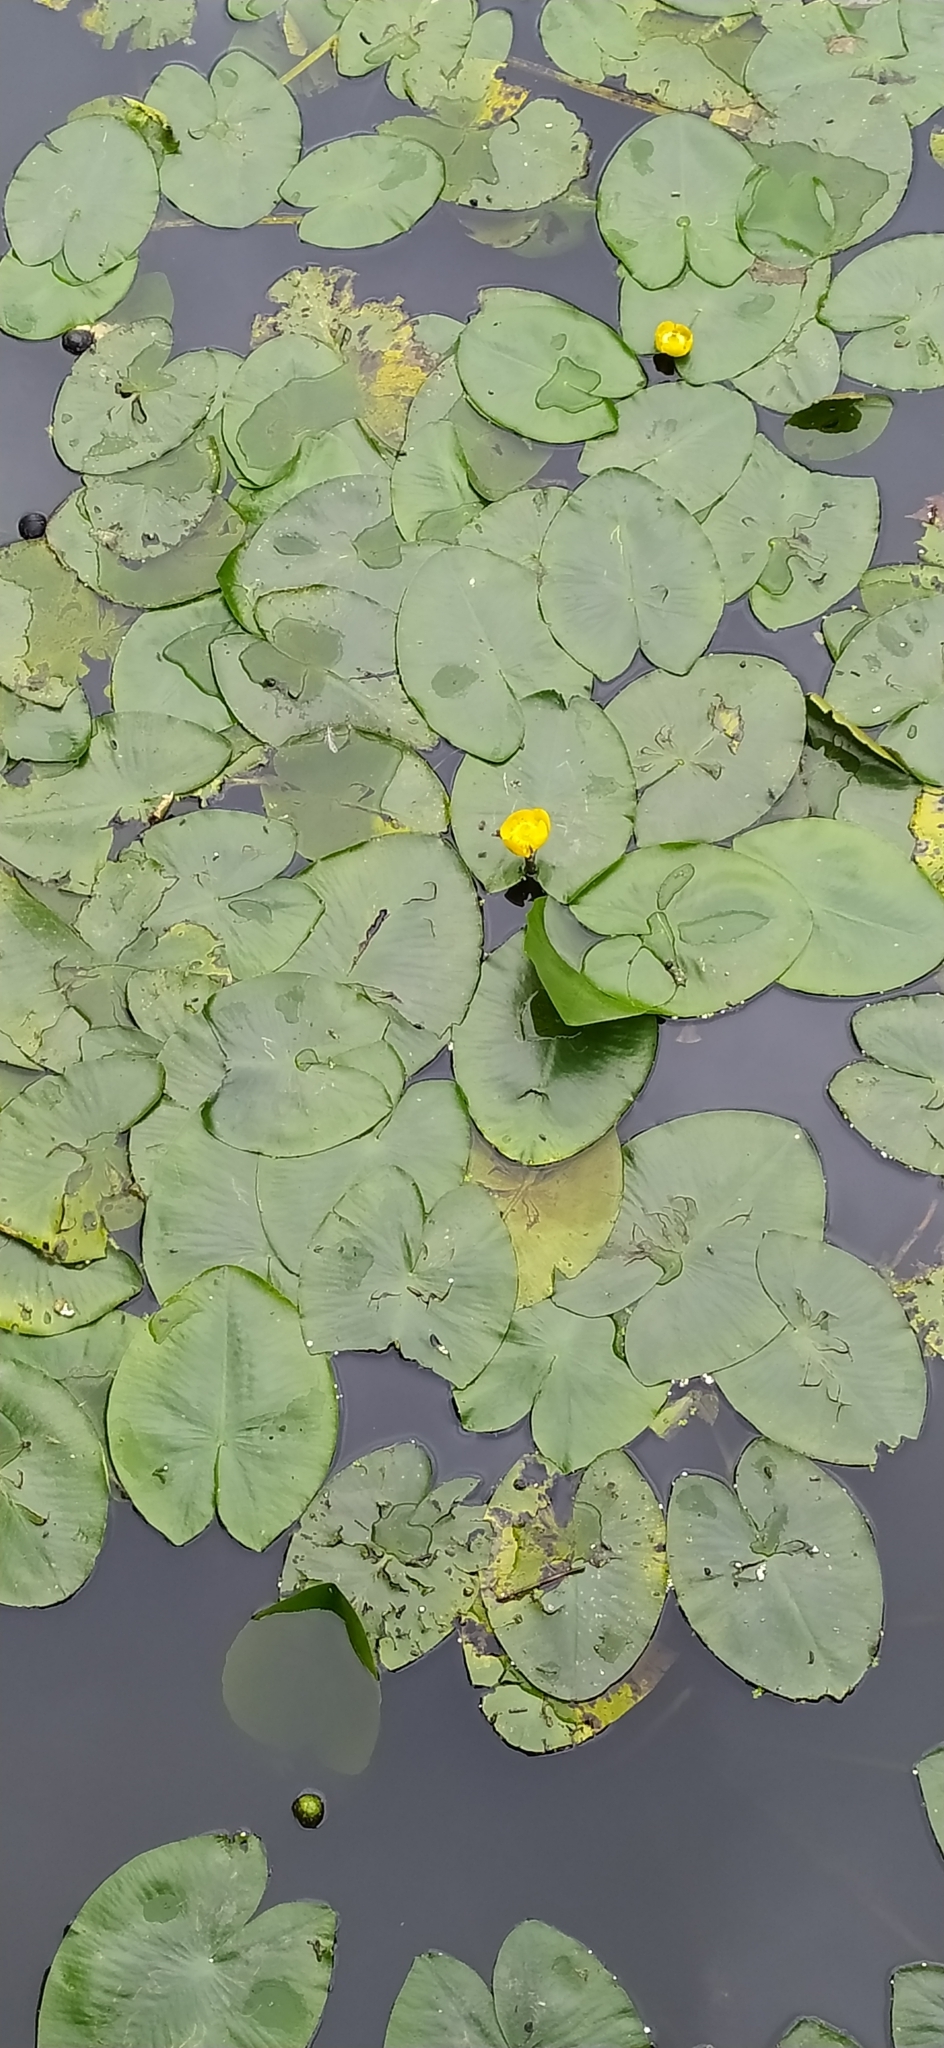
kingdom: Plantae
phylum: Tracheophyta
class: Magnoliopsida
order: Nymphaeales
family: Nymphaeaceae
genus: Nuphar
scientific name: Nuphar lutea
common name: Yellow water-lily
